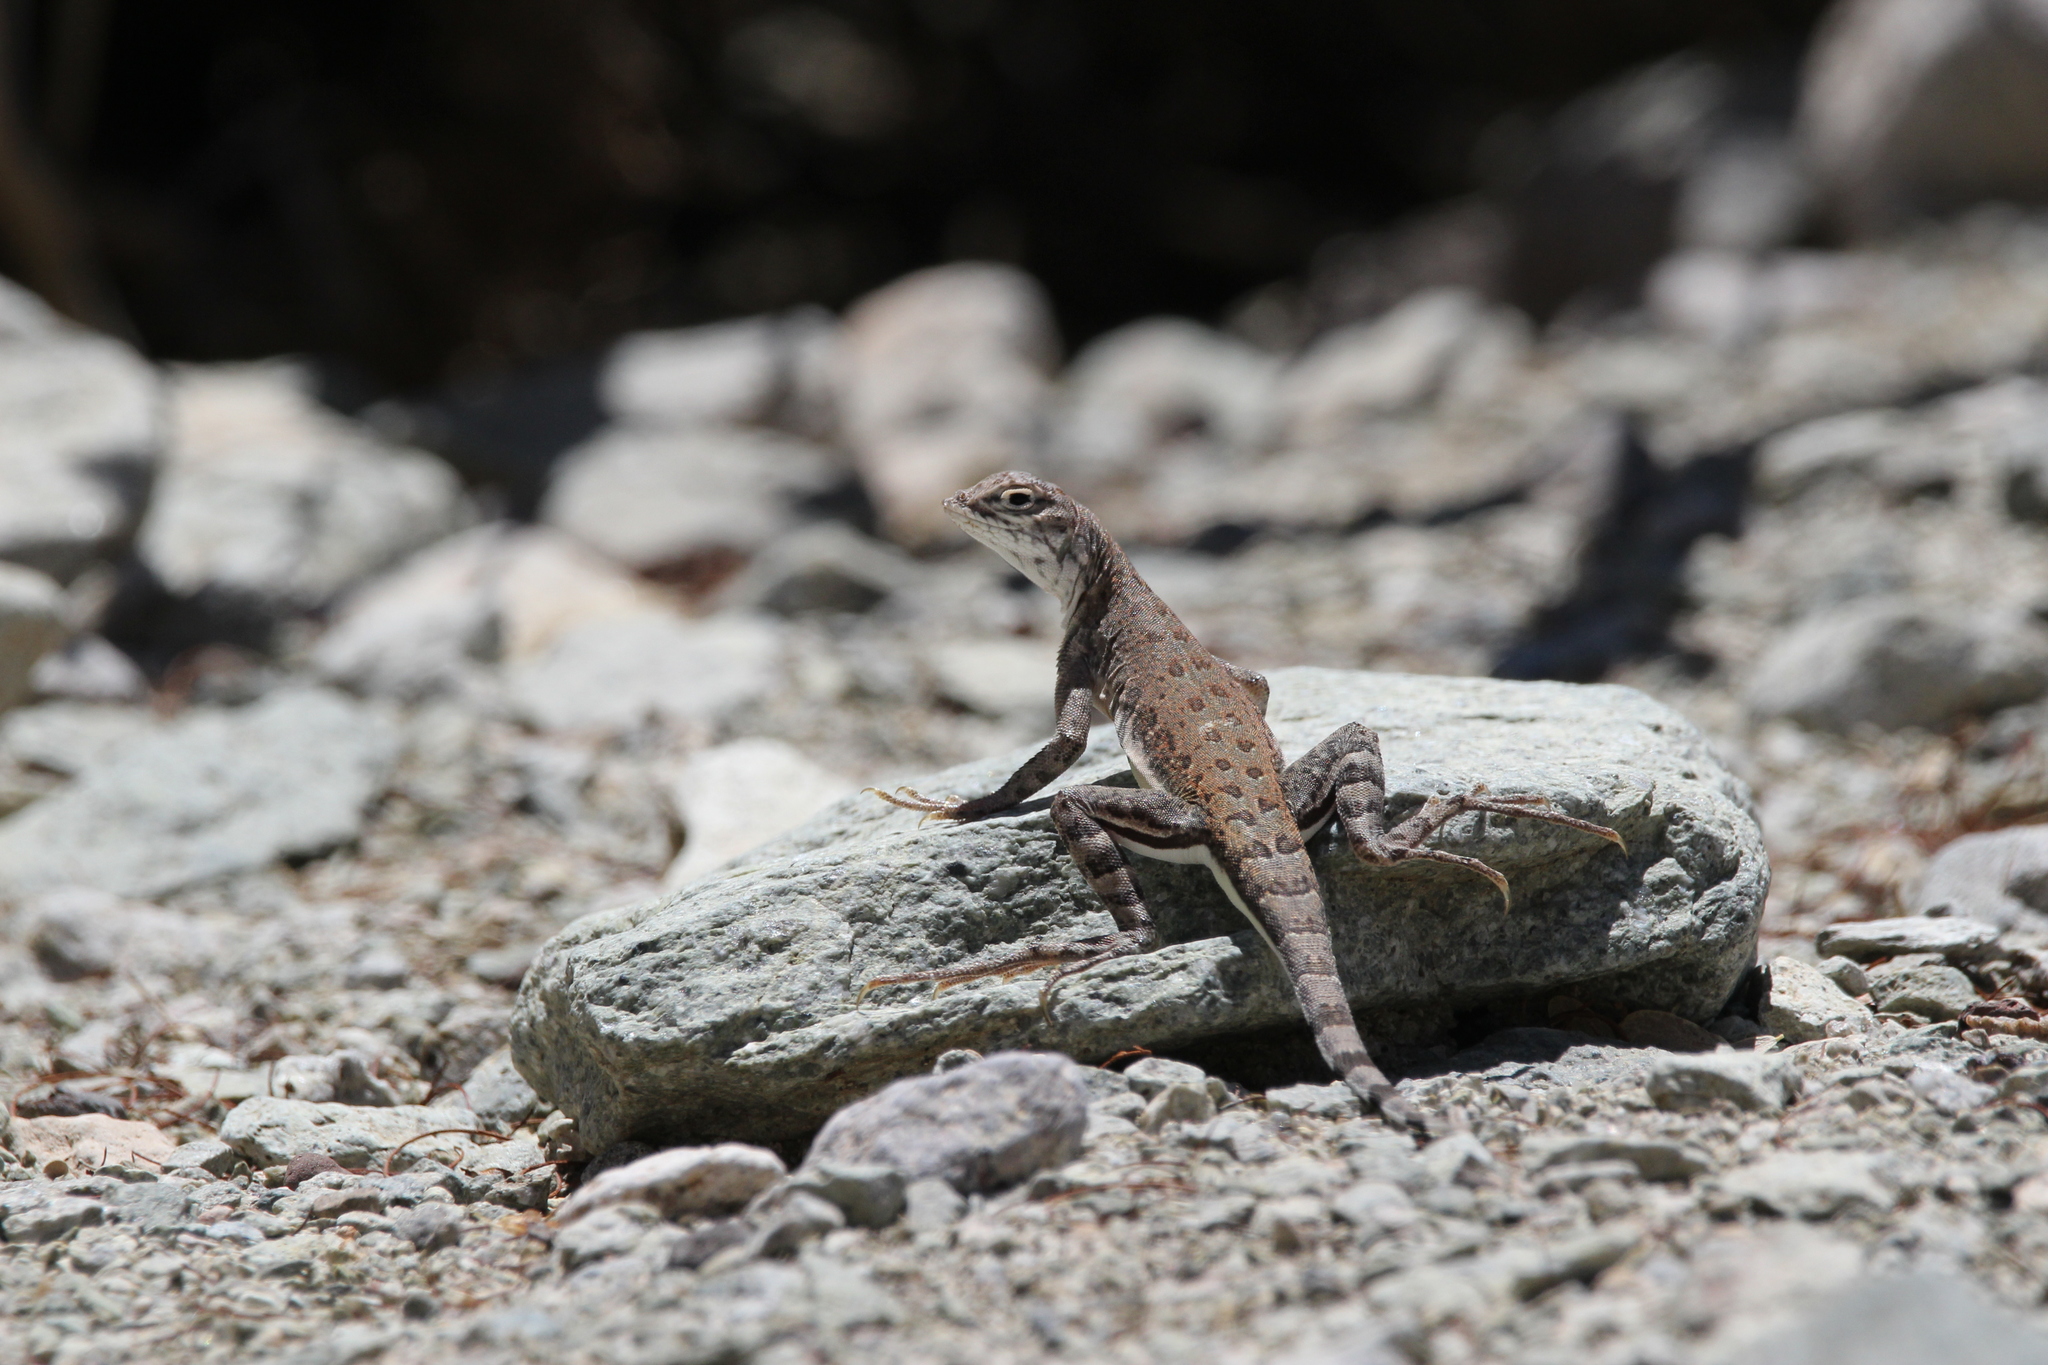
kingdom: Animalia
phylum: Chordata
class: Squamata
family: Phrynosomatidae
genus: Callisaurus
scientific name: Callisaurus draconoides
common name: Zebra-tailed lizard
